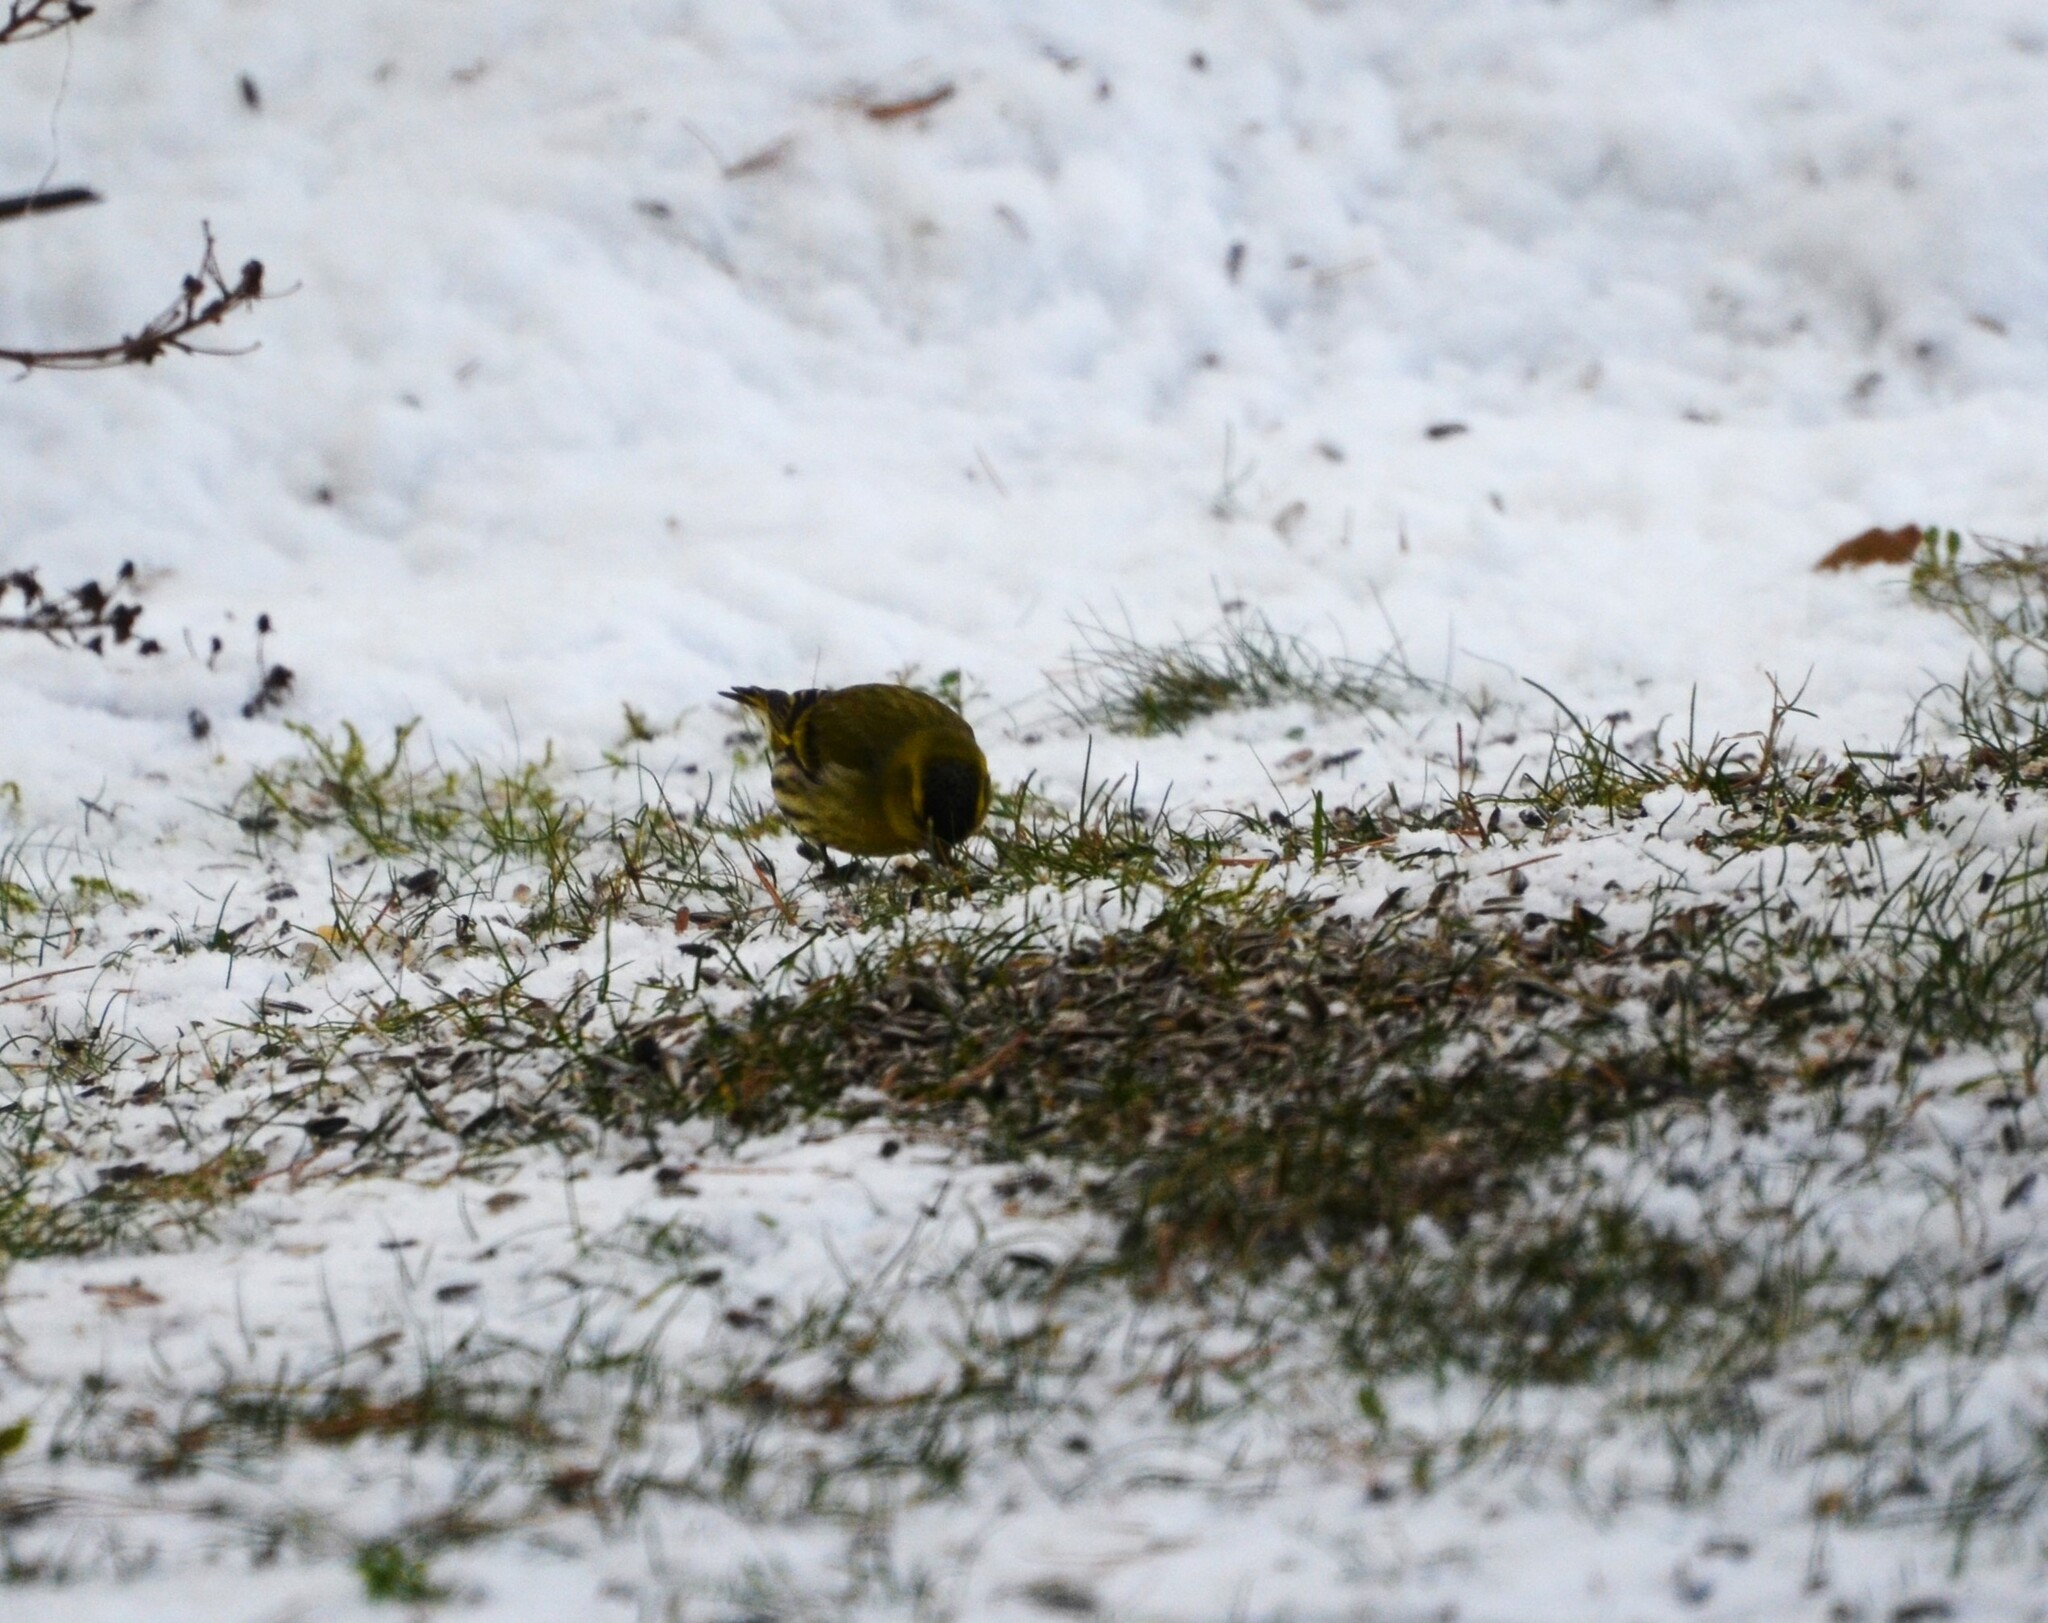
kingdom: Animalia
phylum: Chordata
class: Aves
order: Passeriformes
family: Fringillidae
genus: Spinus
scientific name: Spinus spinus
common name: Eurasian siskin
